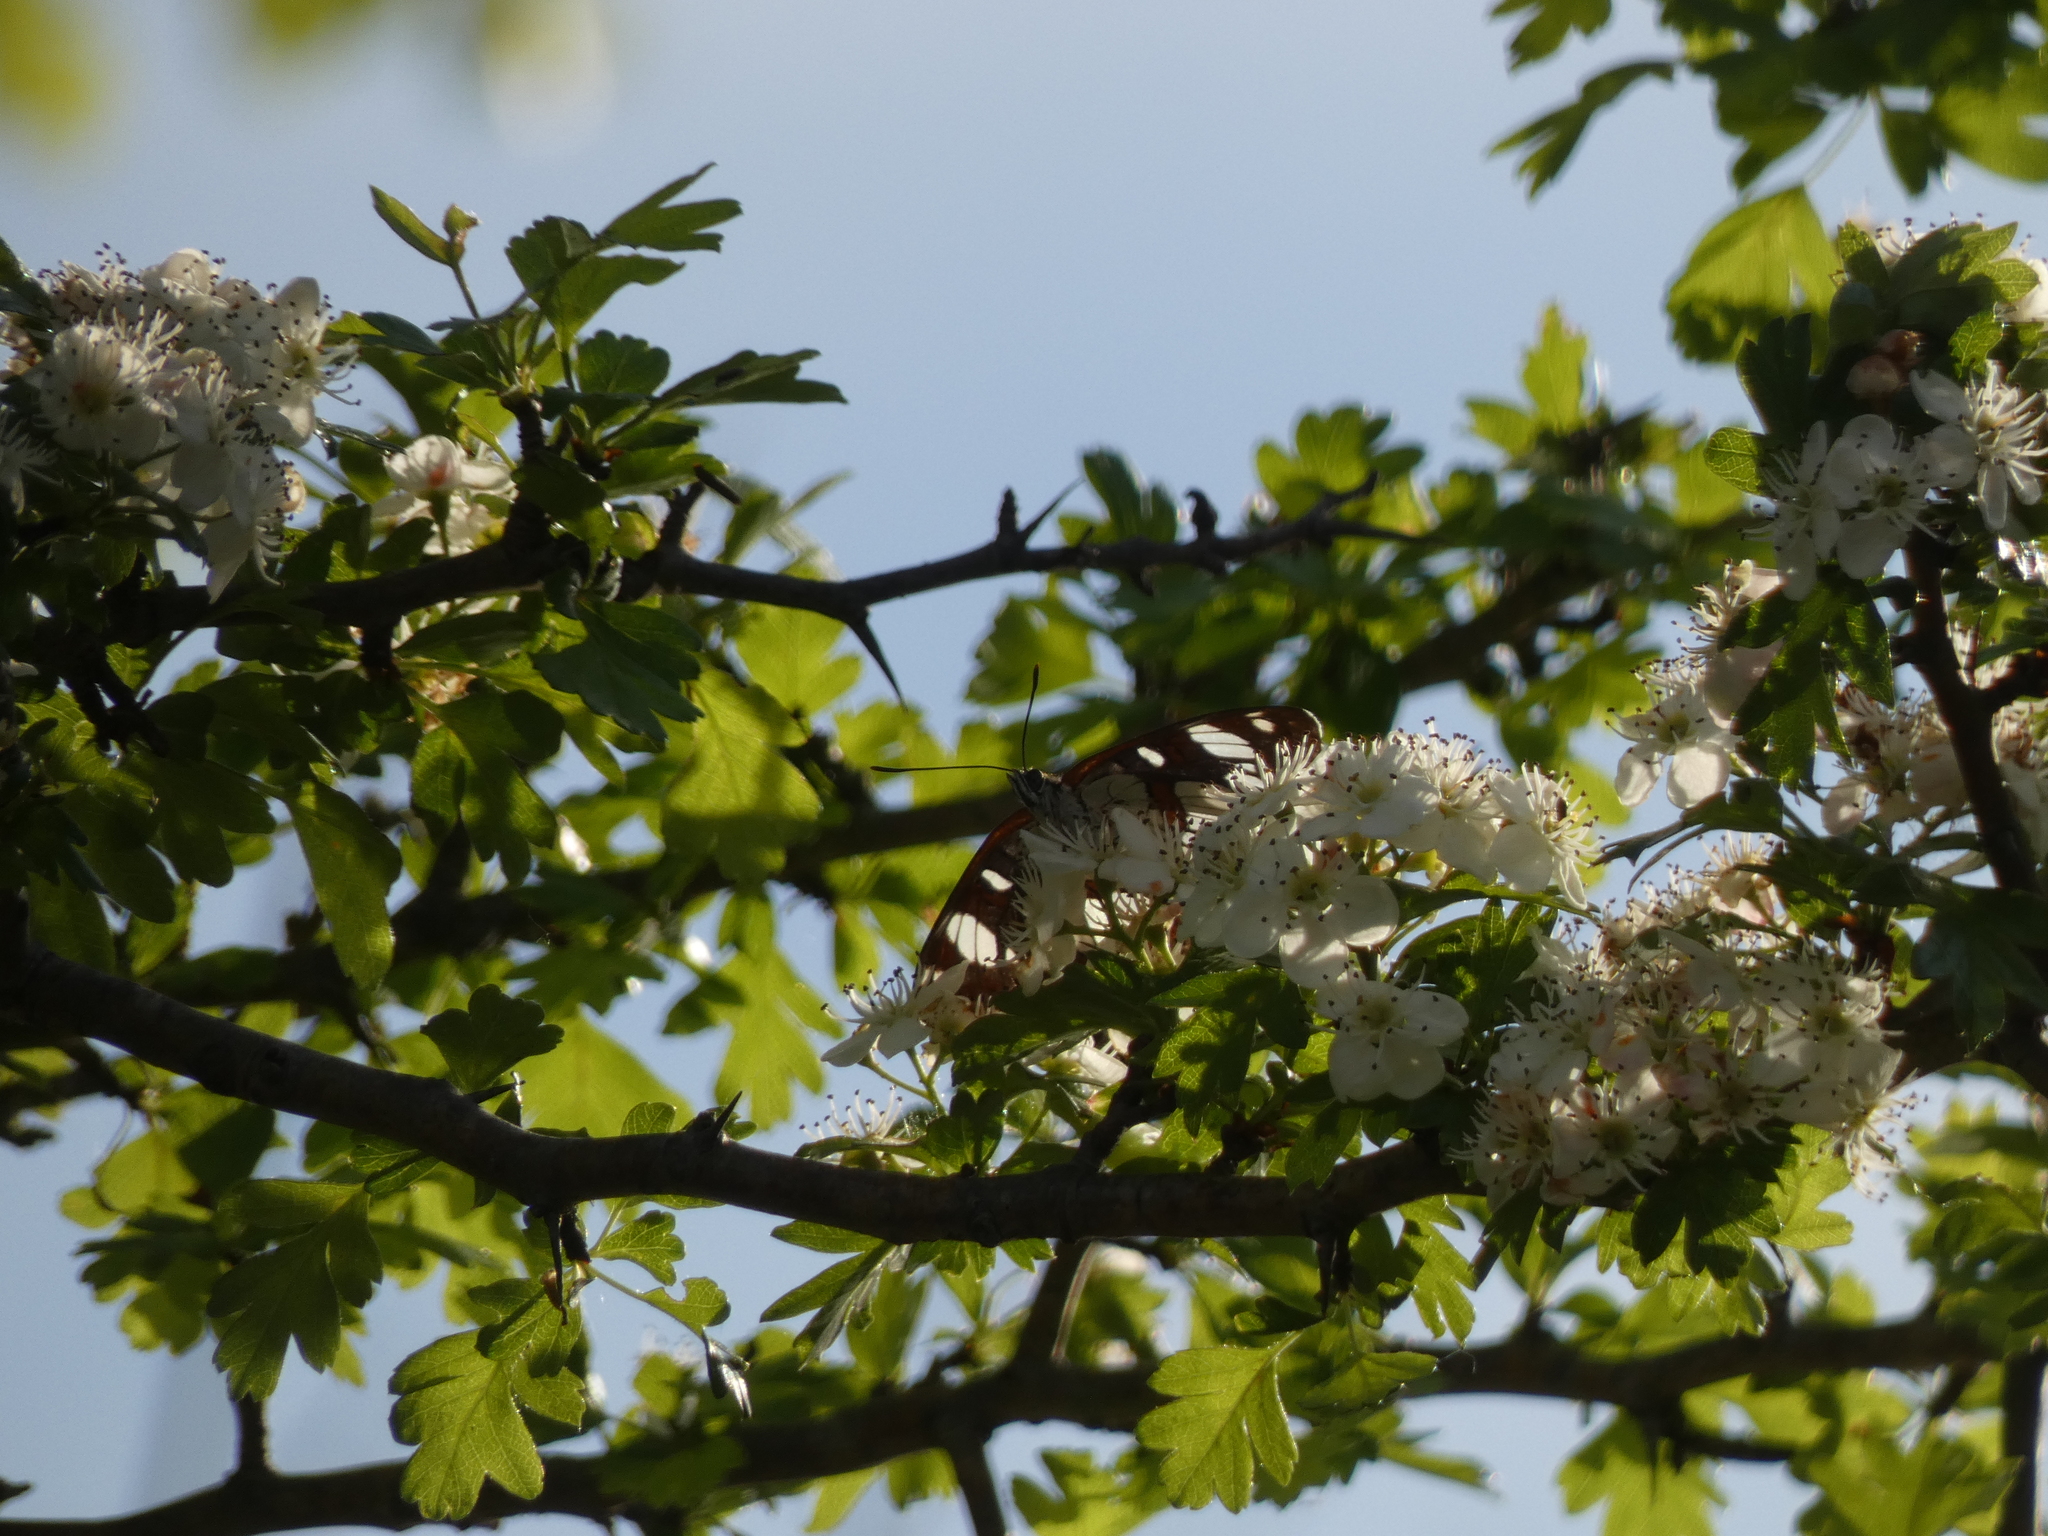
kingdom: Animalia
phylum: Arthropoda
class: Insecta
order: Lepidoptera
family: Nymphalidae
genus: Limenitis
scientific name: Limenitis reducta
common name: Southern white admiral
